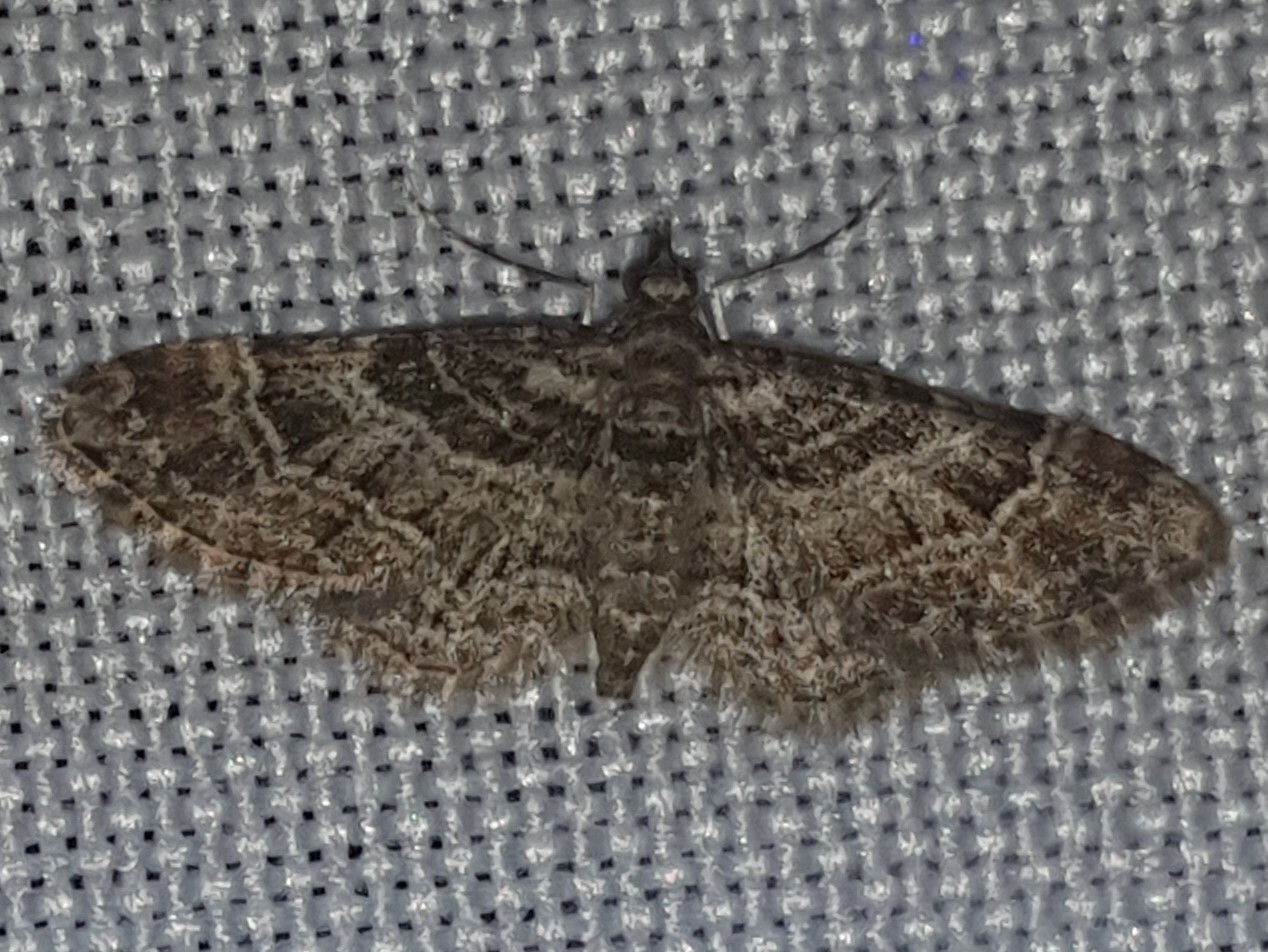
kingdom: Animalia
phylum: Arthropoda
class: Insecta
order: Lepidoptera
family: Geometridae
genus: Gymnoscelis
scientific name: Gymnoscelis rufifasciata
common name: Double-striped pug
